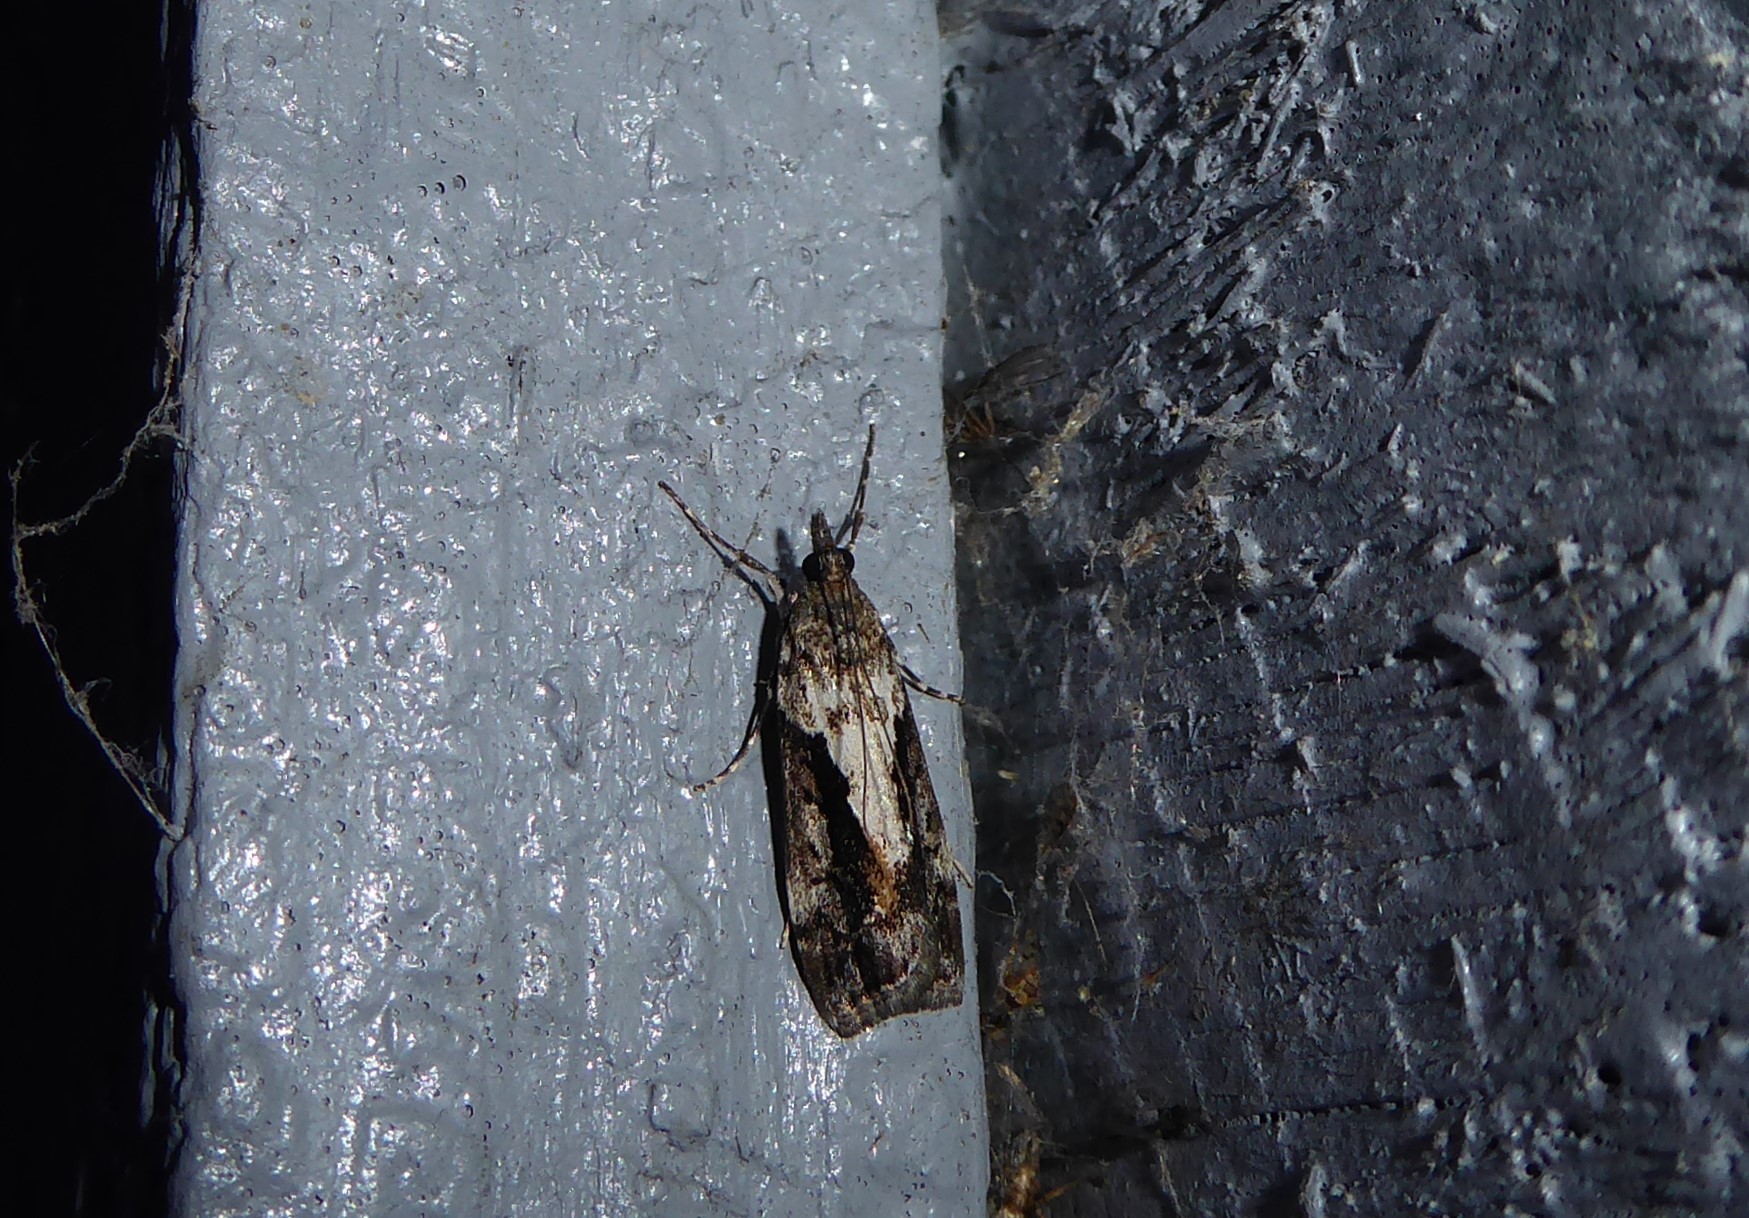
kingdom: Animalia
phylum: Arthropoda
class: Insecta
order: Lepidoptera
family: Crambidae
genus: Eudonia
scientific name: Eudonia submarginalis
